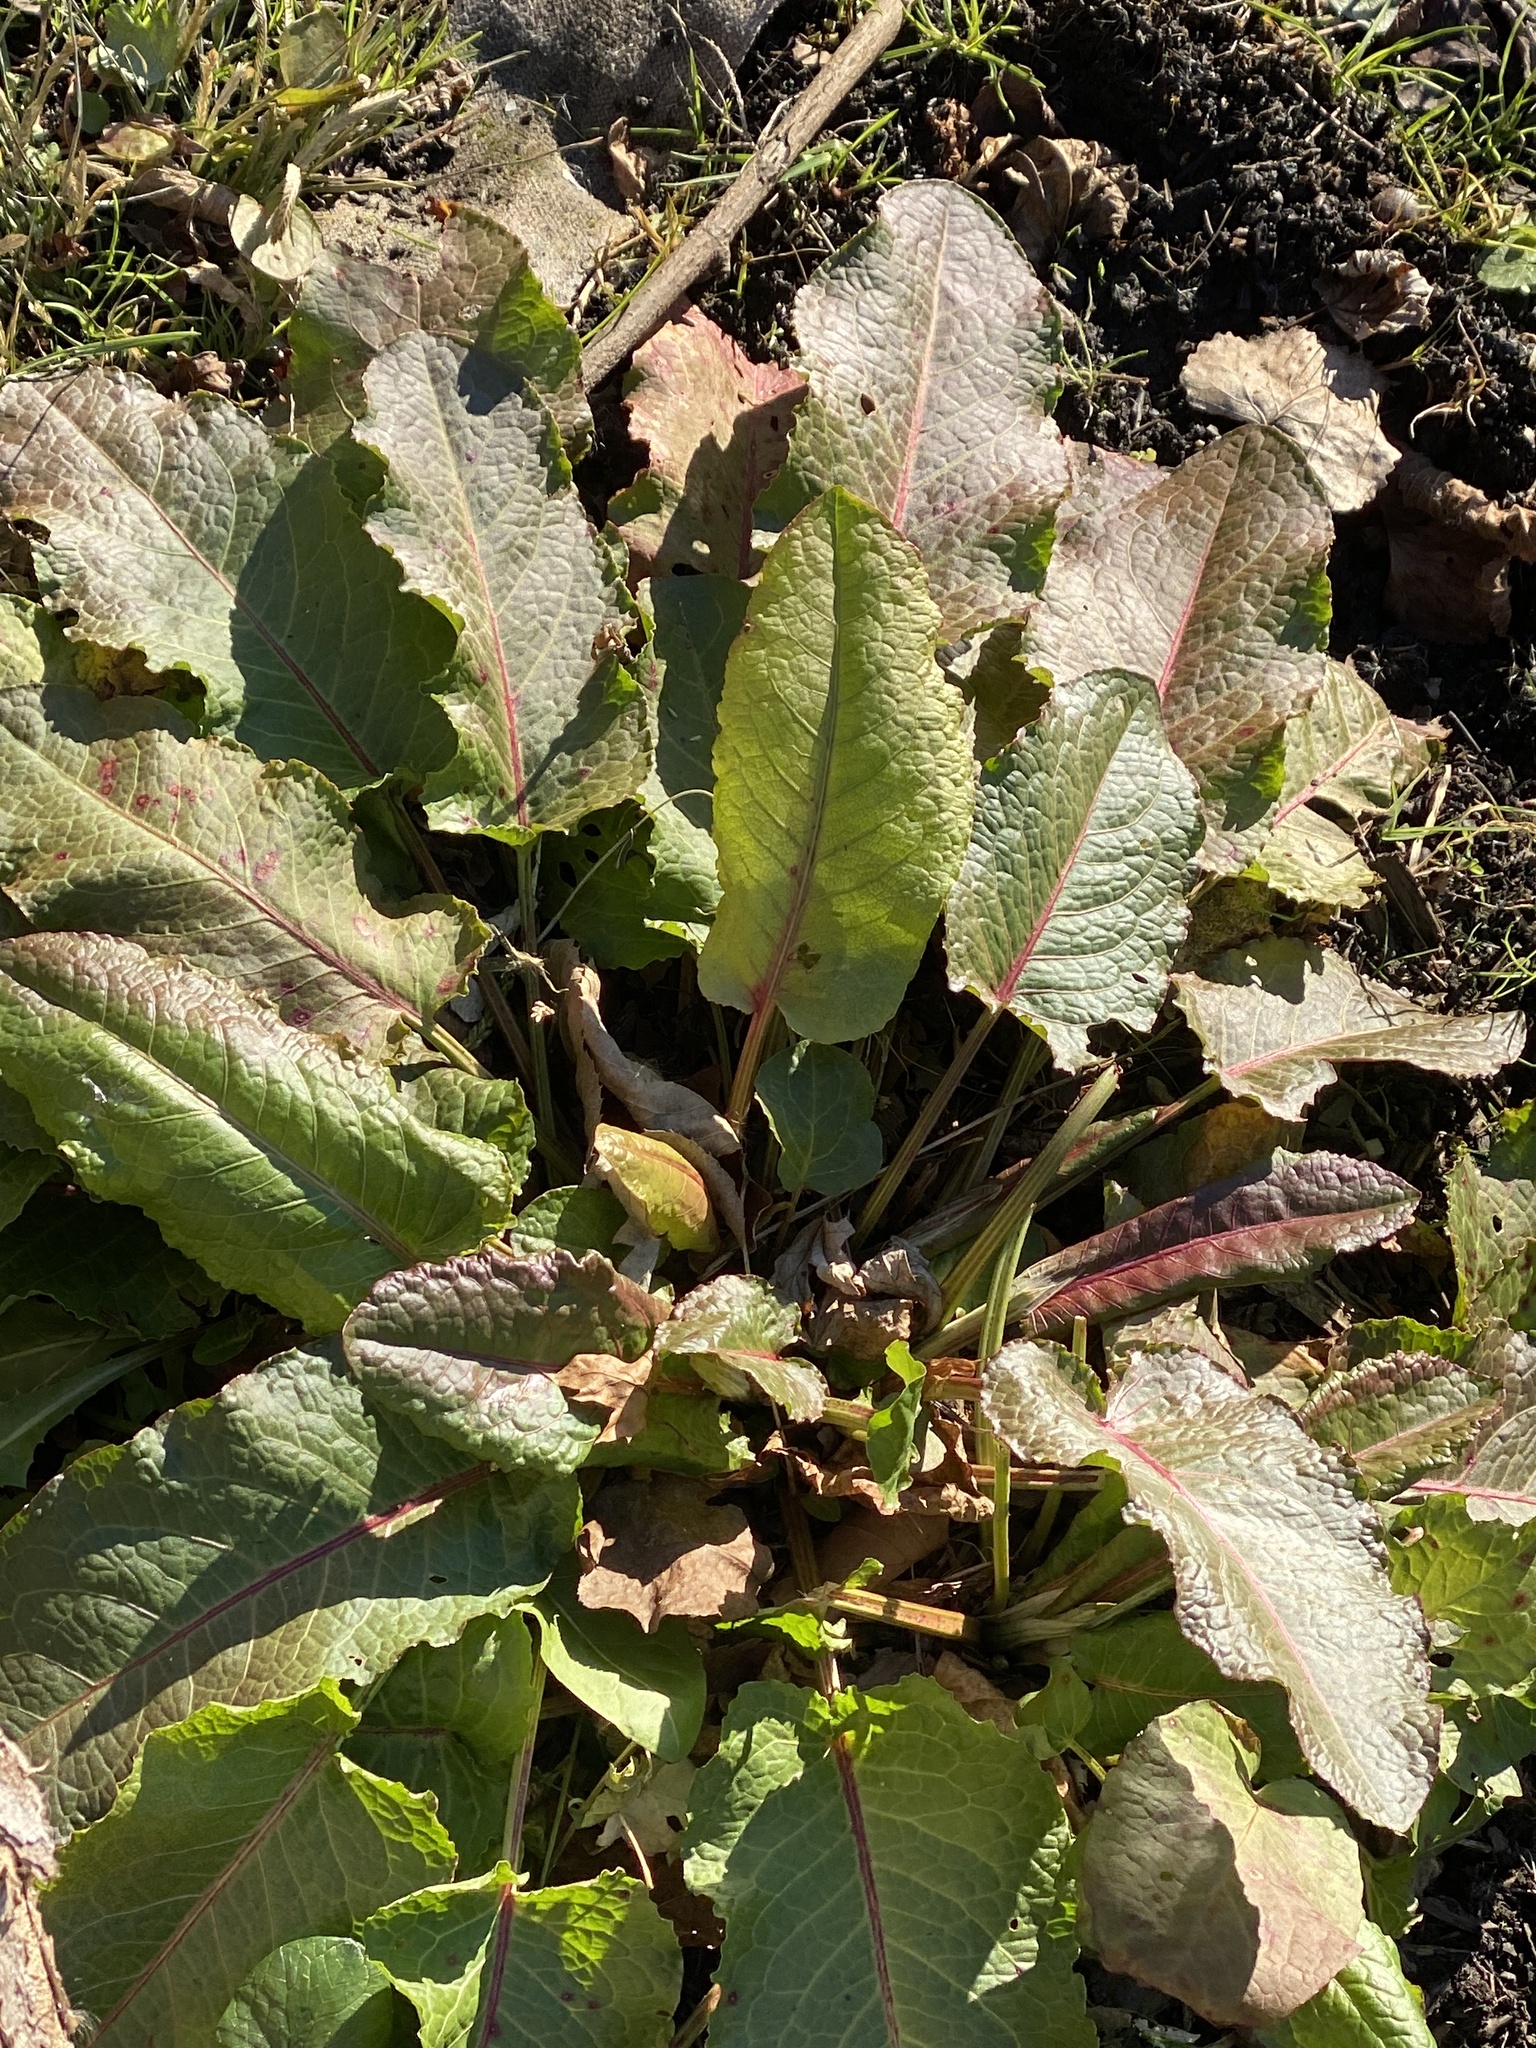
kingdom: Plantae
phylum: Tracheophyta
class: Magnoliopsida
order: Caryophyllales
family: Polygonaceae
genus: Rumex
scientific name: Rumex obtusifolius
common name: Bitter dock
